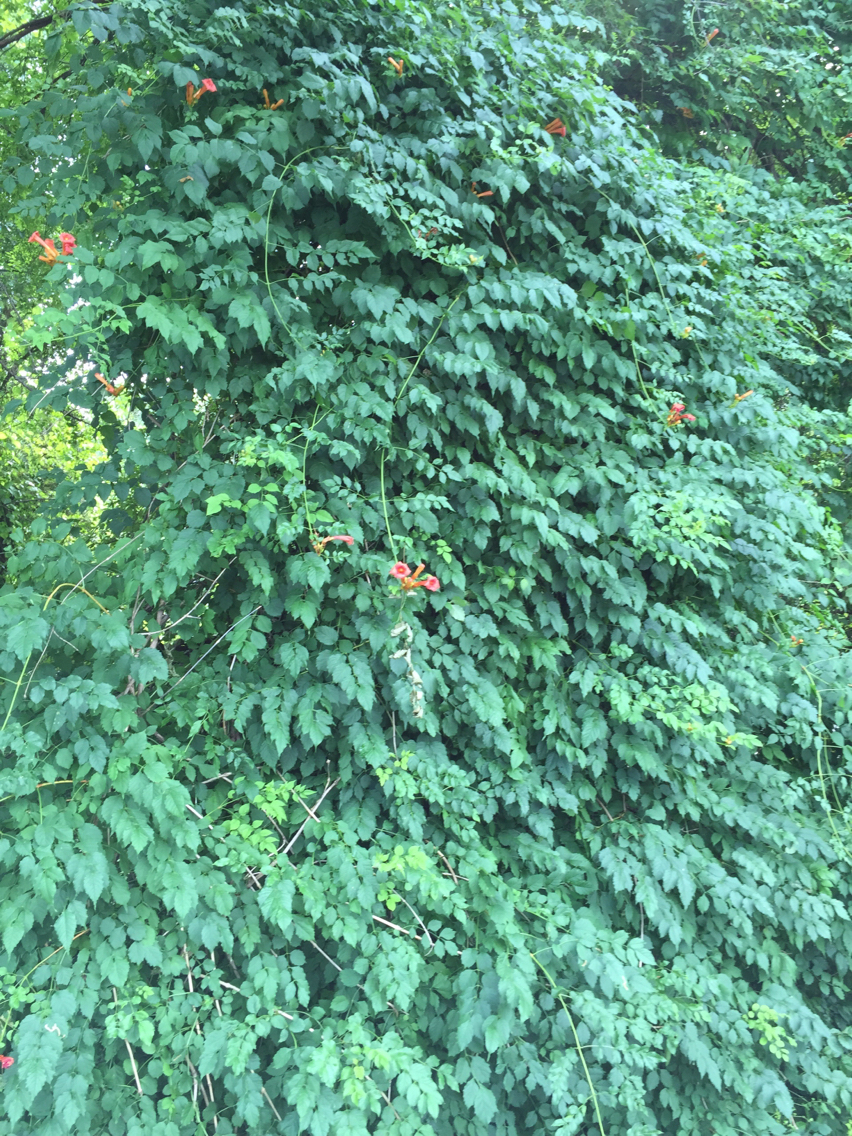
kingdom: Plantae
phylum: Tracheophyta
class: Magnoliopsida
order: Lamiales
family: Bignoniaceae
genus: Campsis
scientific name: Campsis radicans
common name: Trumpet-creeper
